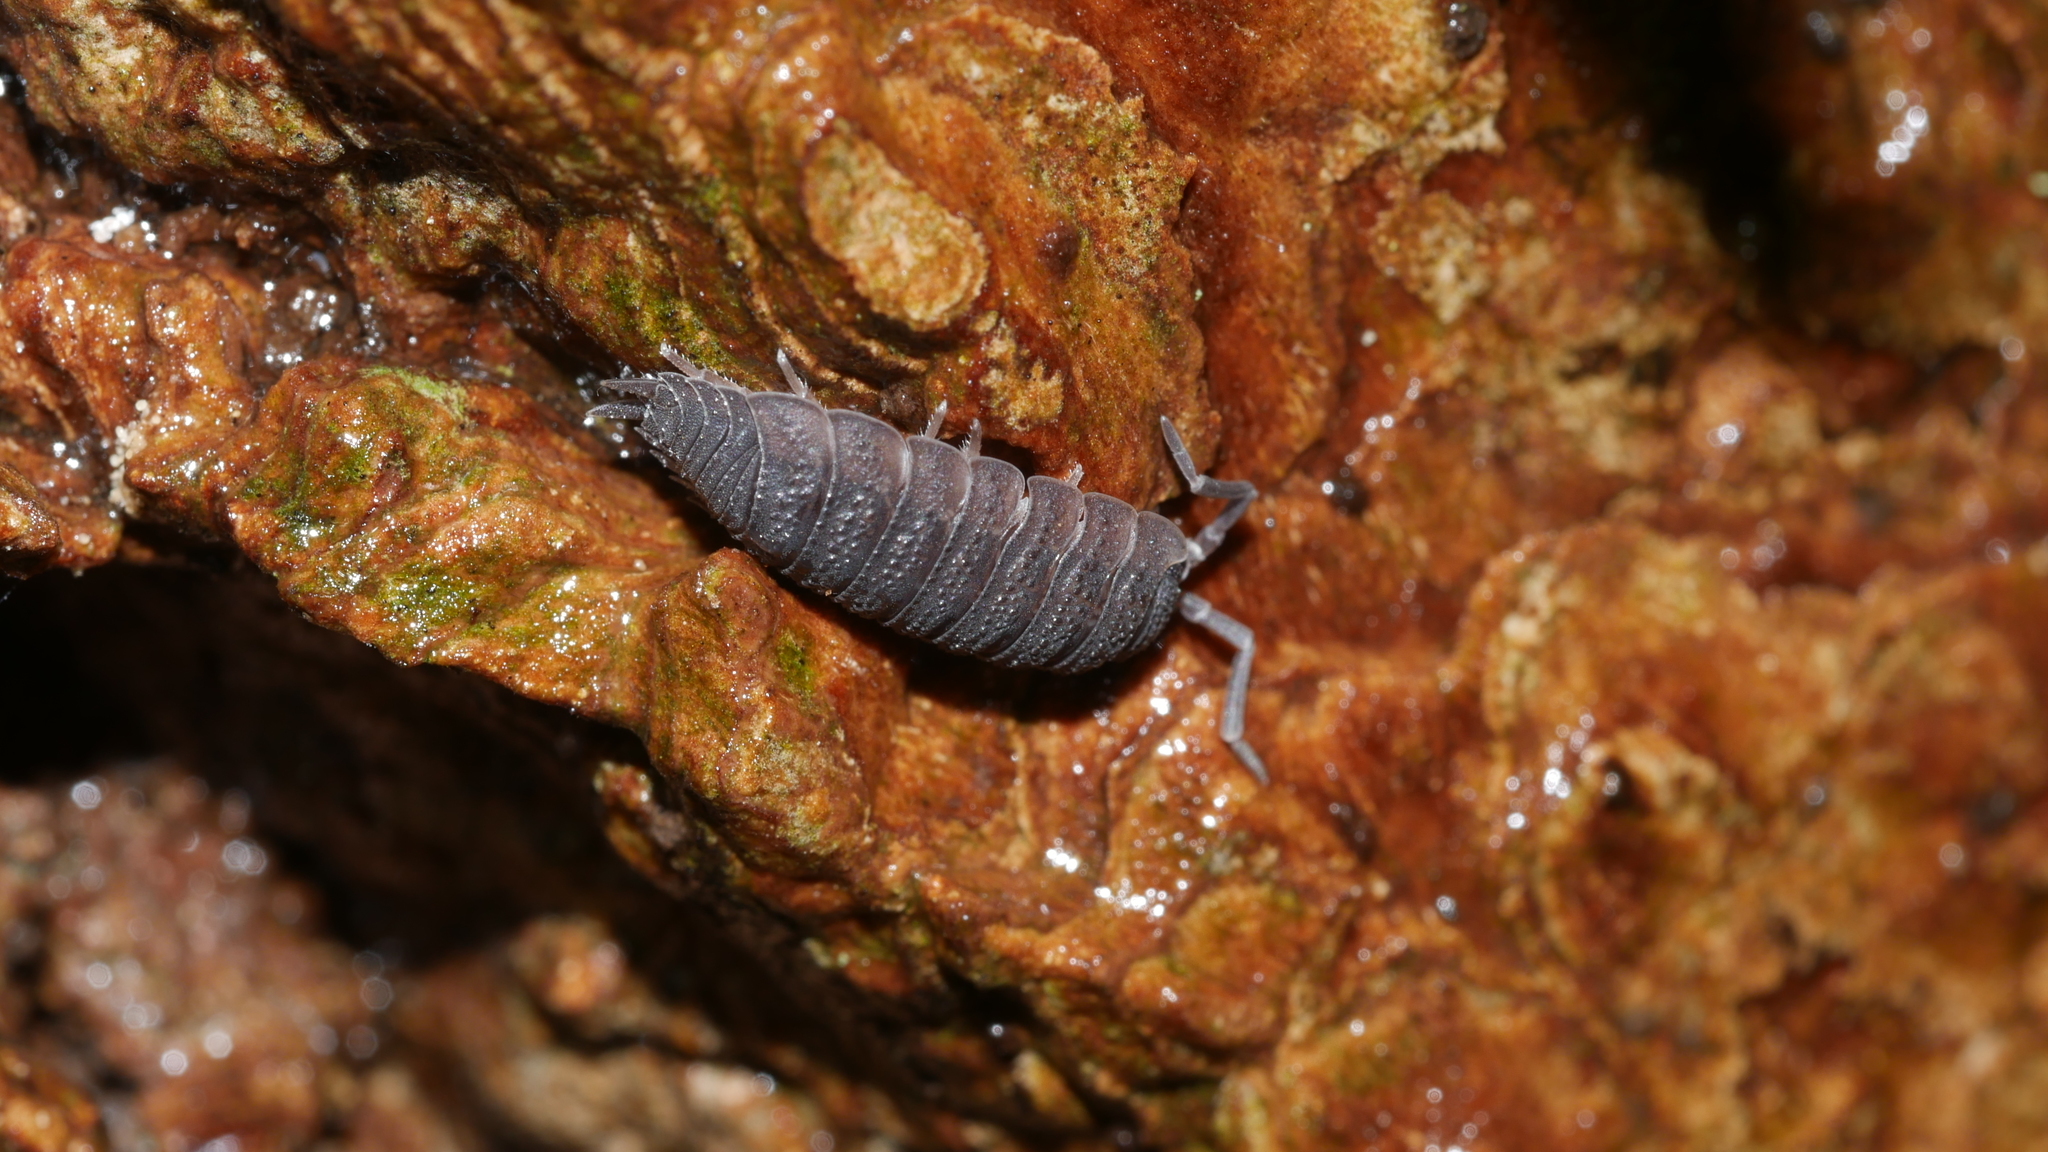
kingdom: Animalia
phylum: Arthropoda
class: Malacostraca
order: Isopoda
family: Porcellionidae
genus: Porcellio
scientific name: Porcellio scaber
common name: Common rough woodlouse
